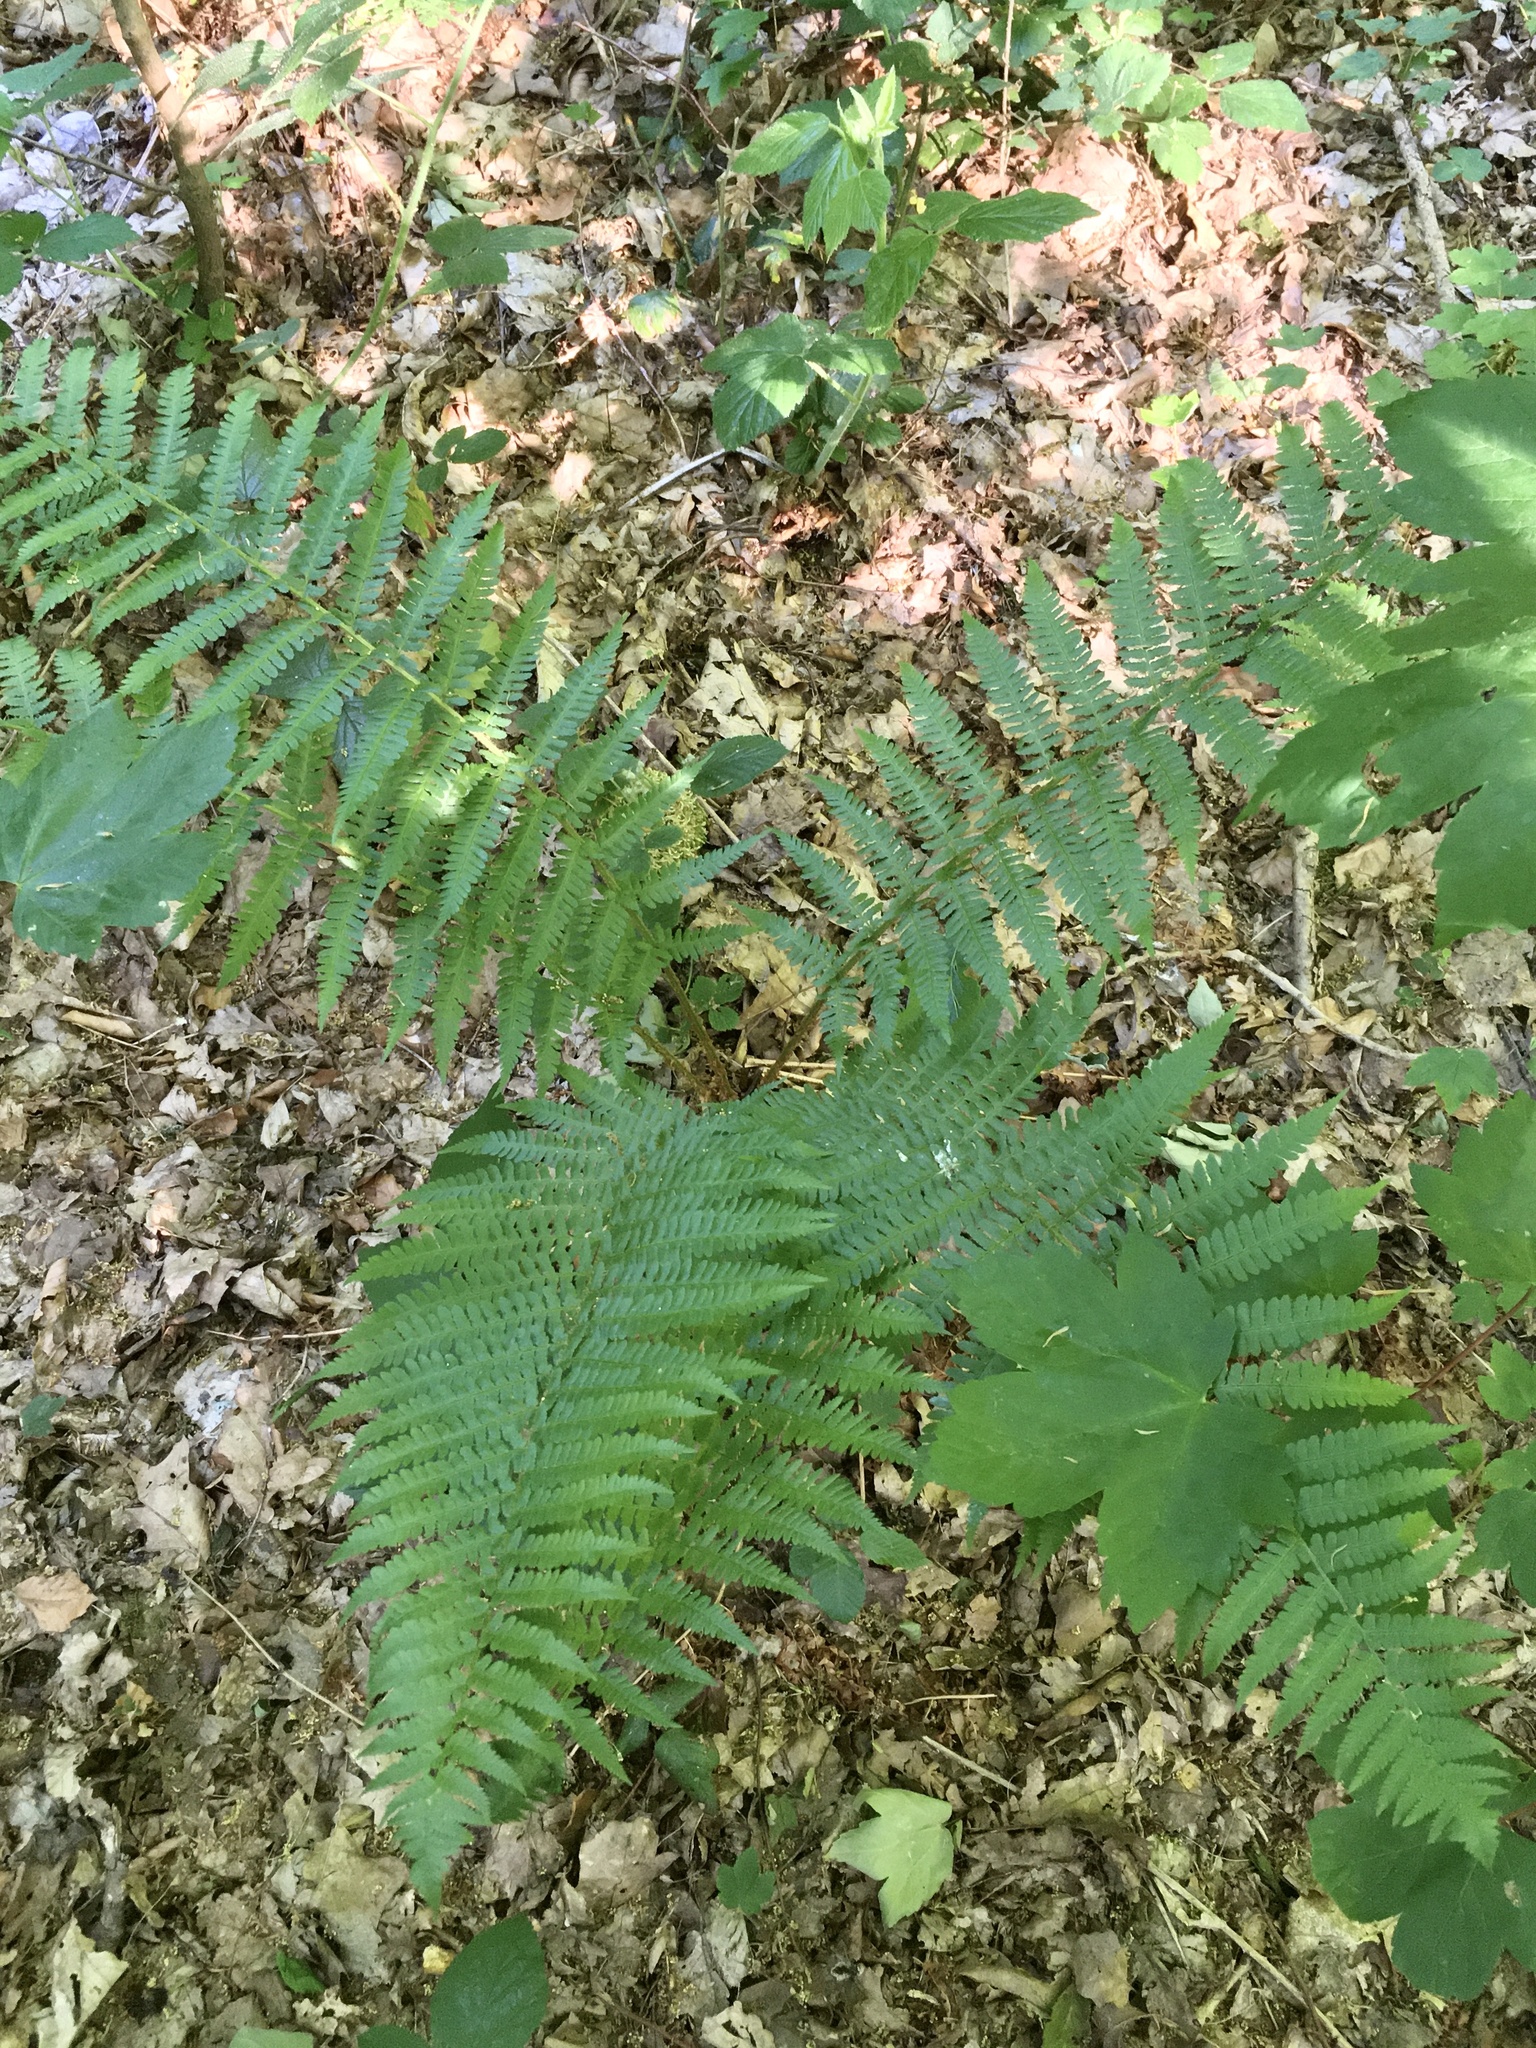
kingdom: Plantae
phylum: Tracheophyta
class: Polypodiopsida
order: Polypodiales
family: Dryopteridaceae
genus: Dryopteris
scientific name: Dryopteris filix-mas
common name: Male fern
